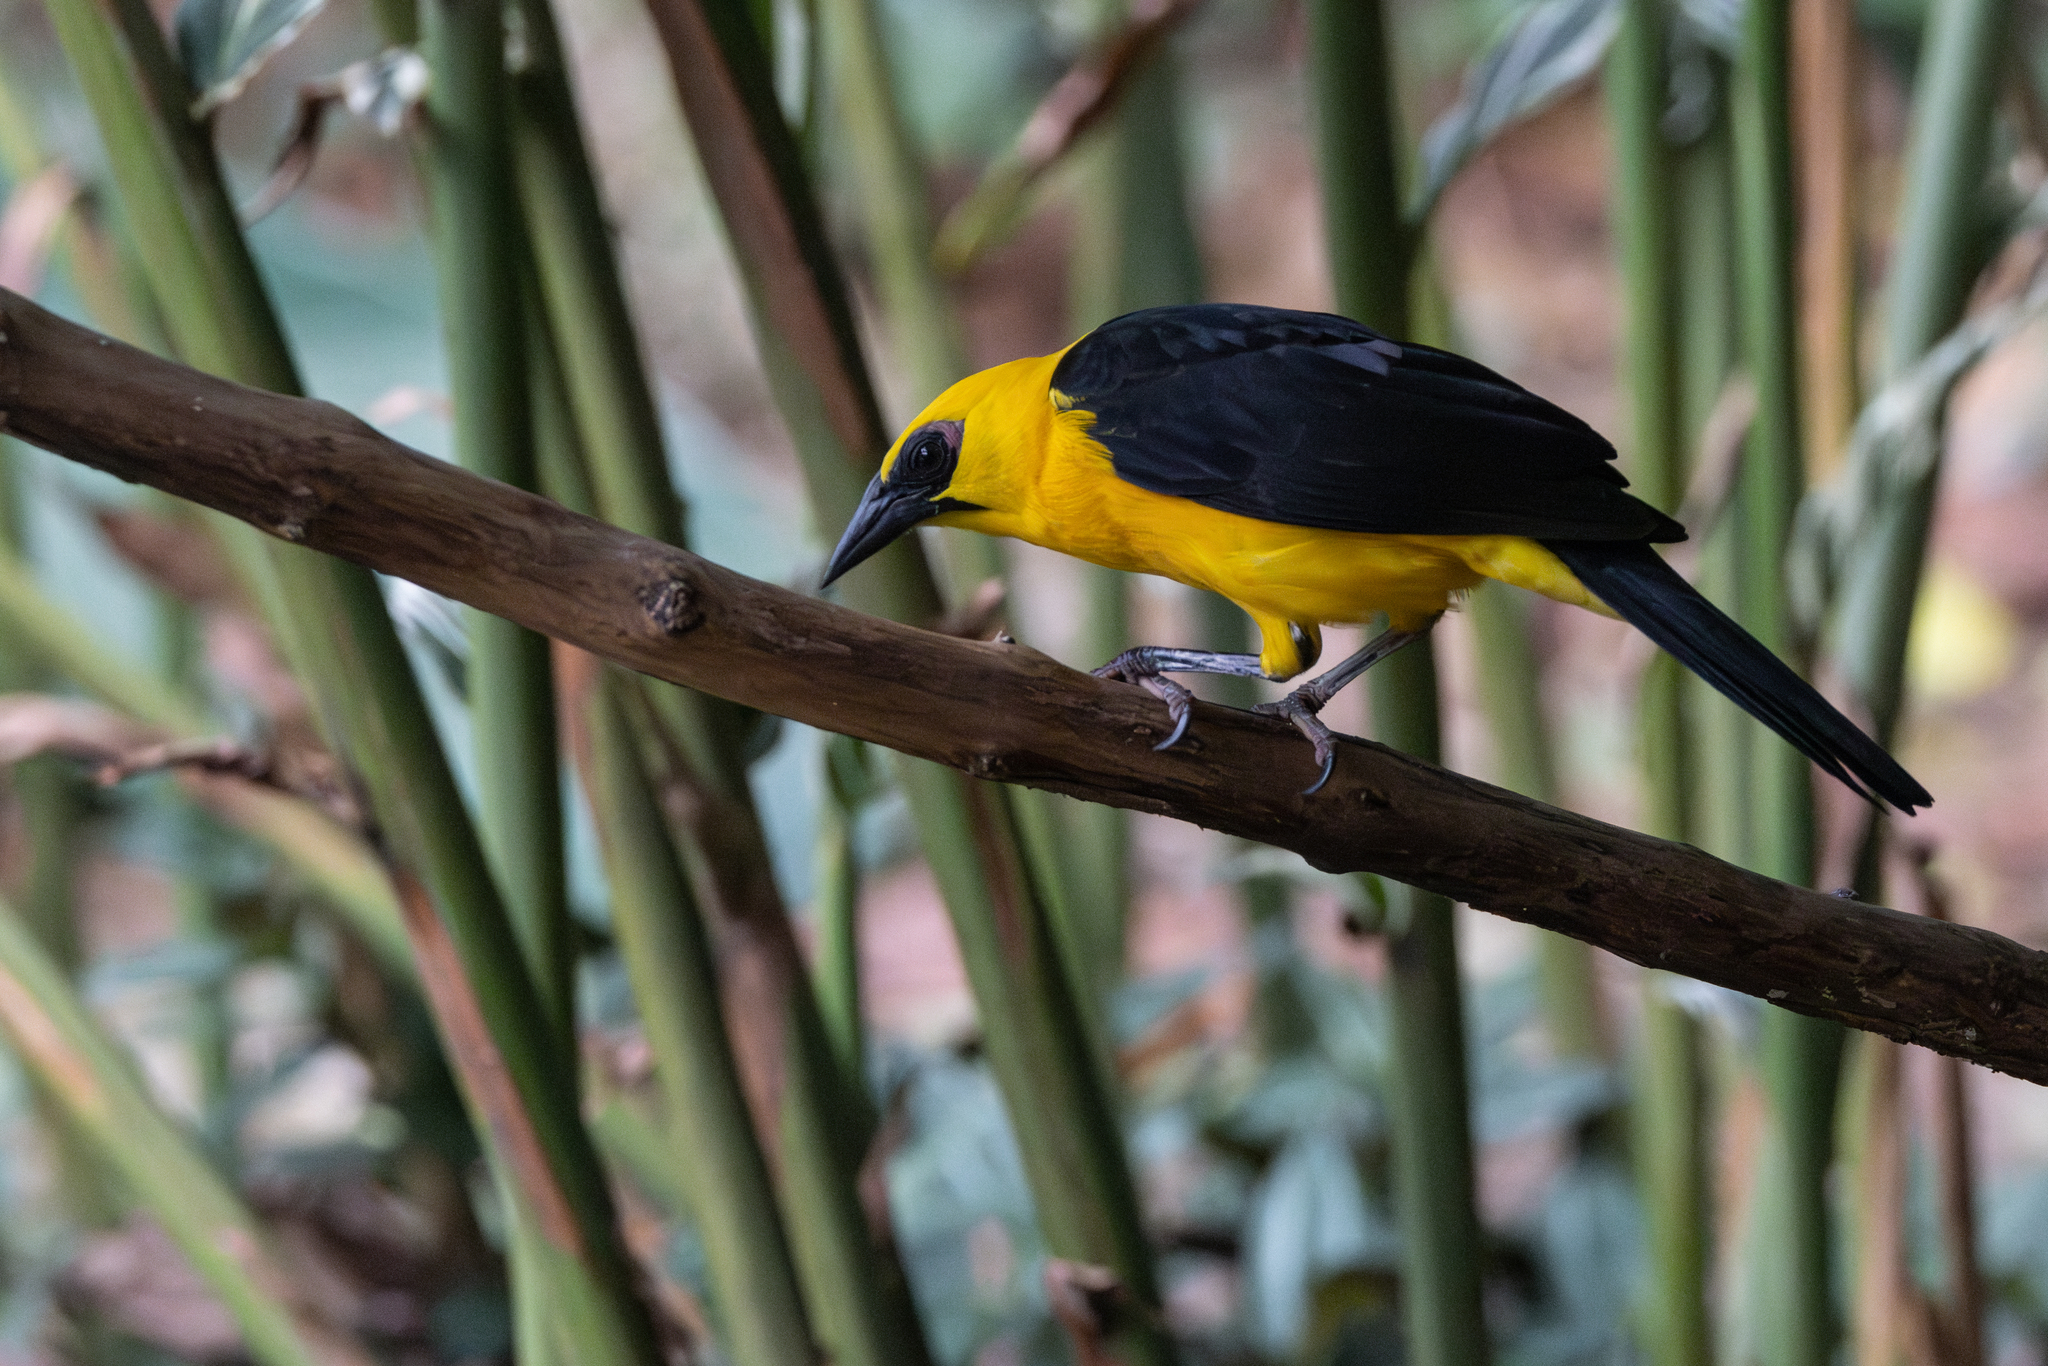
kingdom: Animalia
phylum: Chordata
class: Aves
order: Passeriformes
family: Icteridae
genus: Gymnomystax
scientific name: Gymnomystax mexicanus
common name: Oriole blackbird
